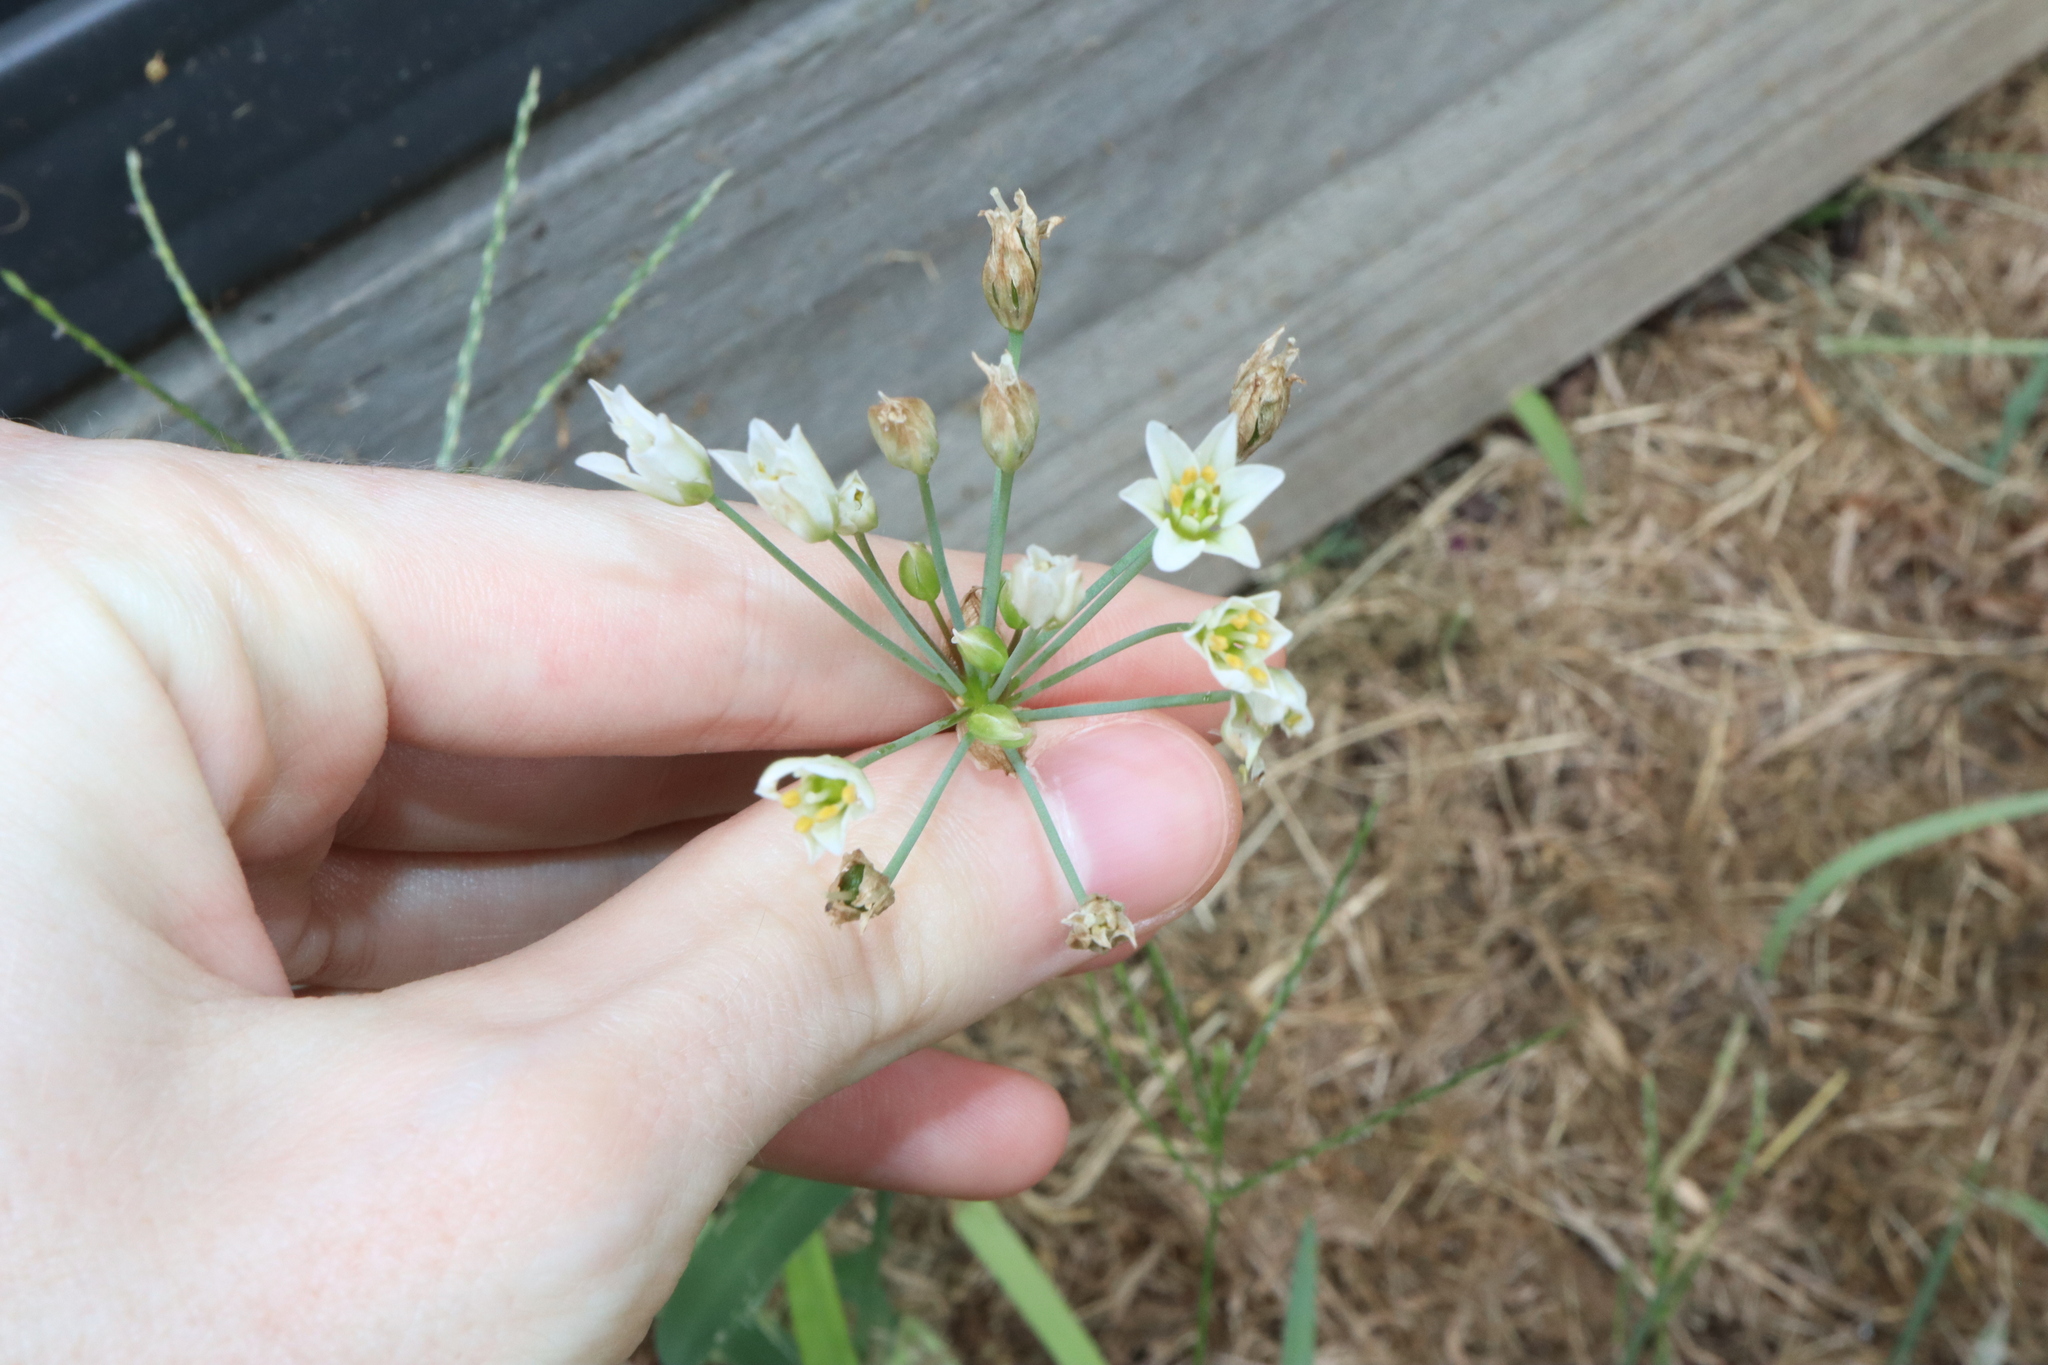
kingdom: Plantae
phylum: Tracheophyta
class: Liliopsida
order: Asparagales
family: Amaryllidaceae
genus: Nothoscordum
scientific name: Nothoscordum gracile
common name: Slender false garlic
